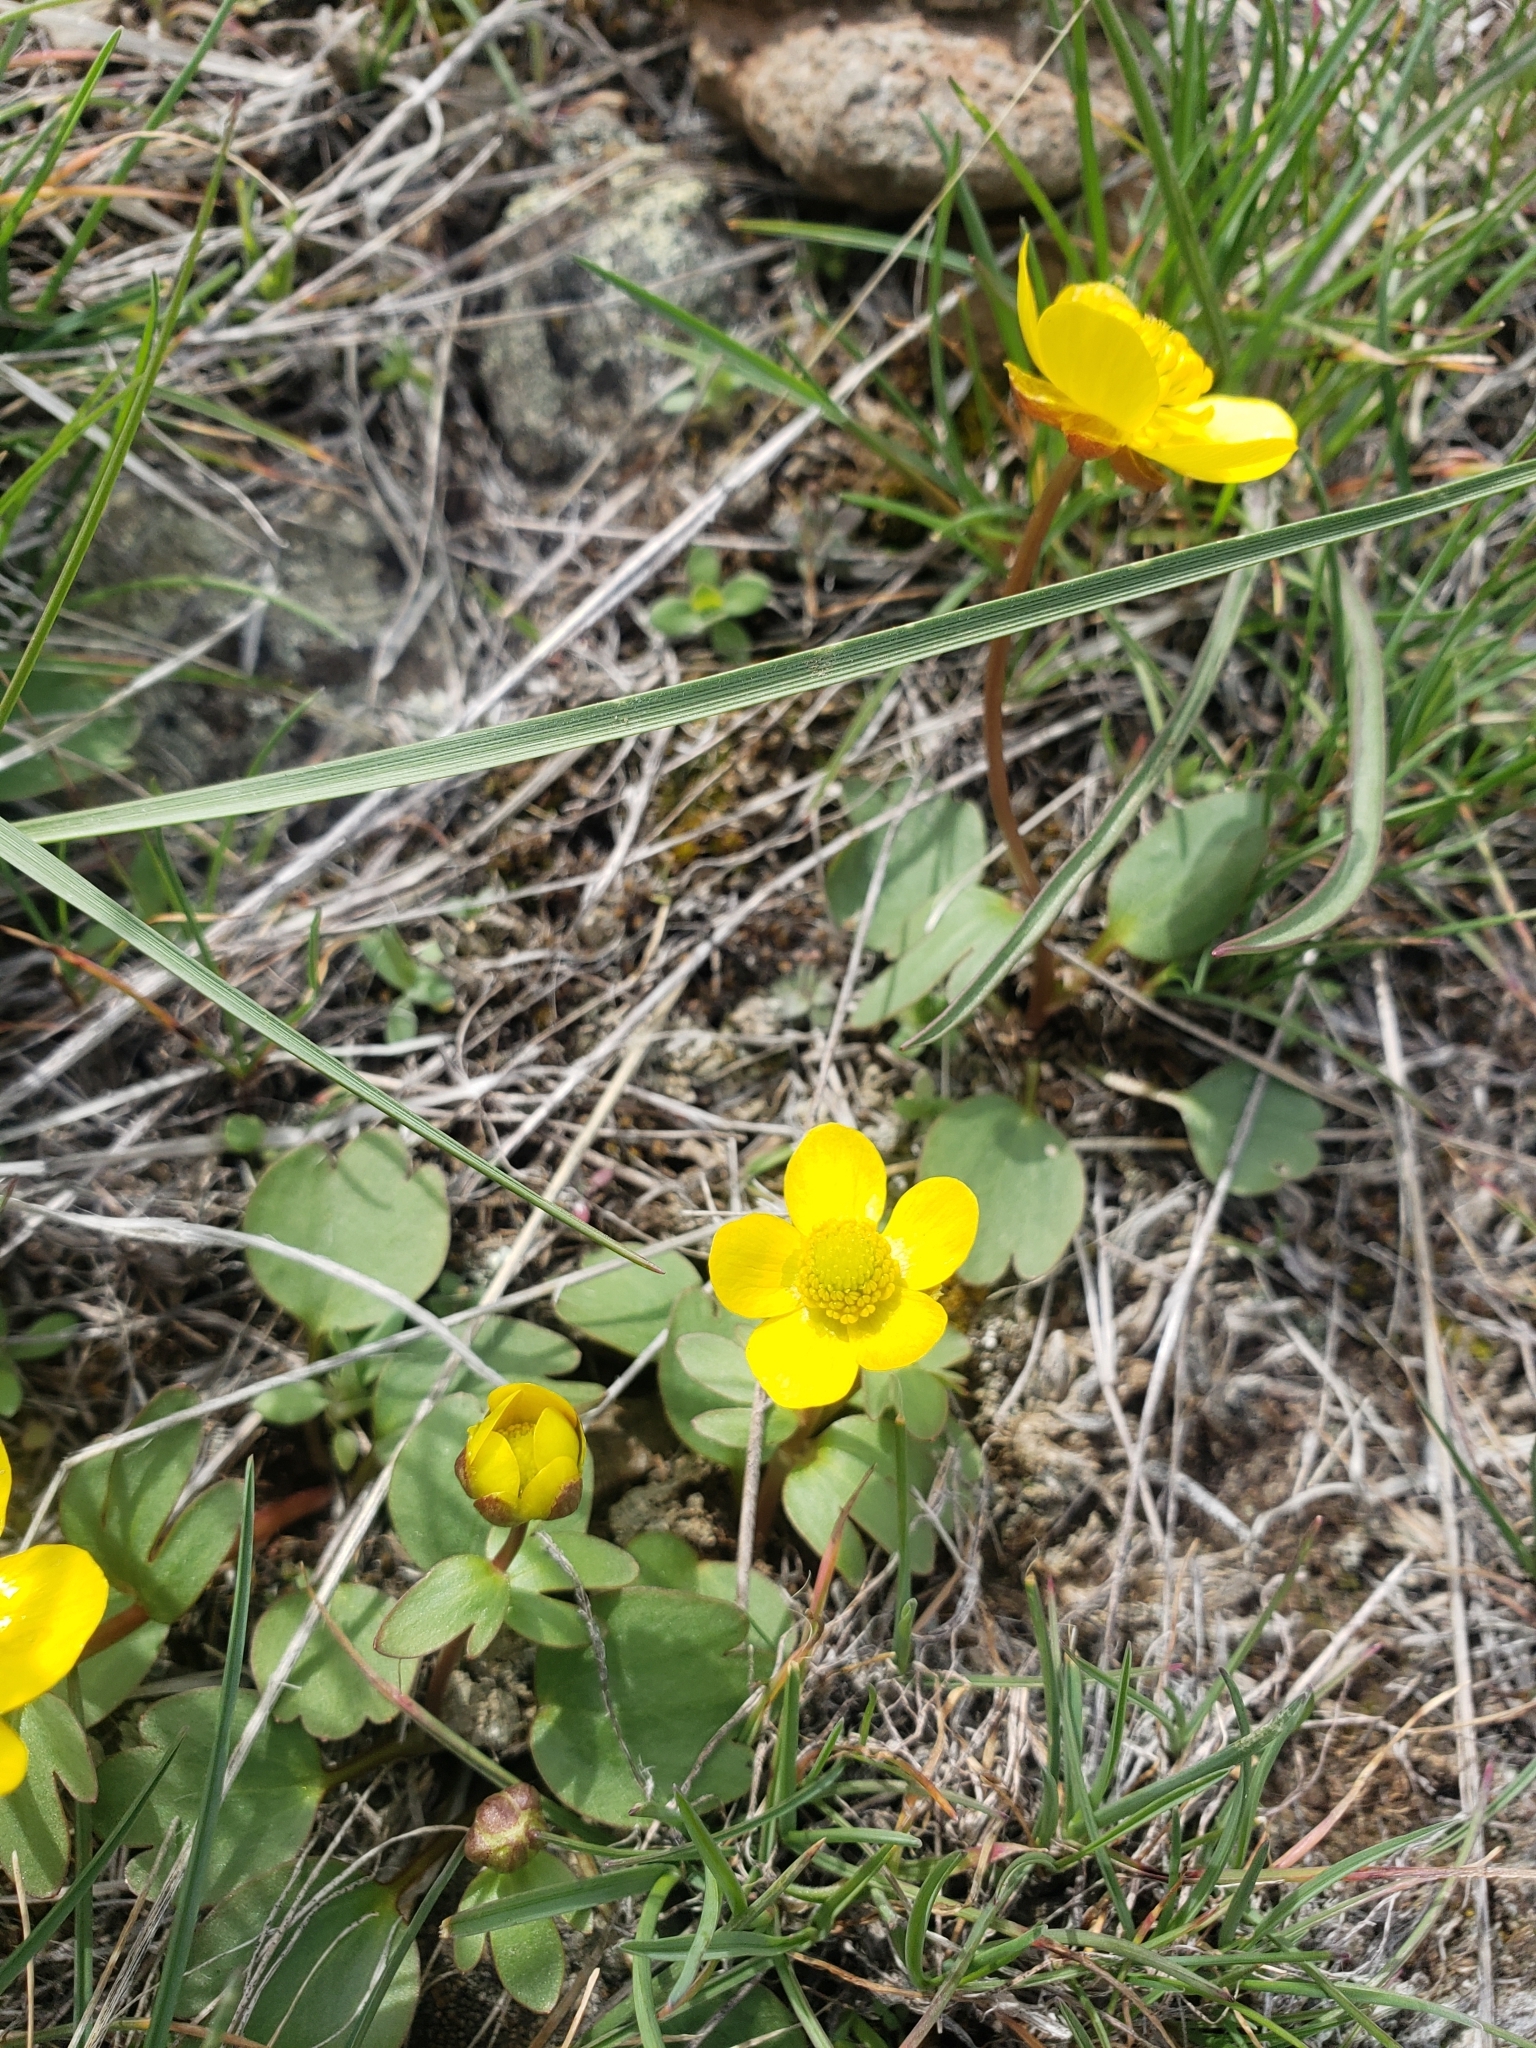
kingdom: Plantae
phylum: Tracheophyta
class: Magnoliopsida
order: Ranunculales
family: Ranunculaceae
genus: Ranunculus
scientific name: Ranunculus glaberrimus
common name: Sagebrush buttercup
